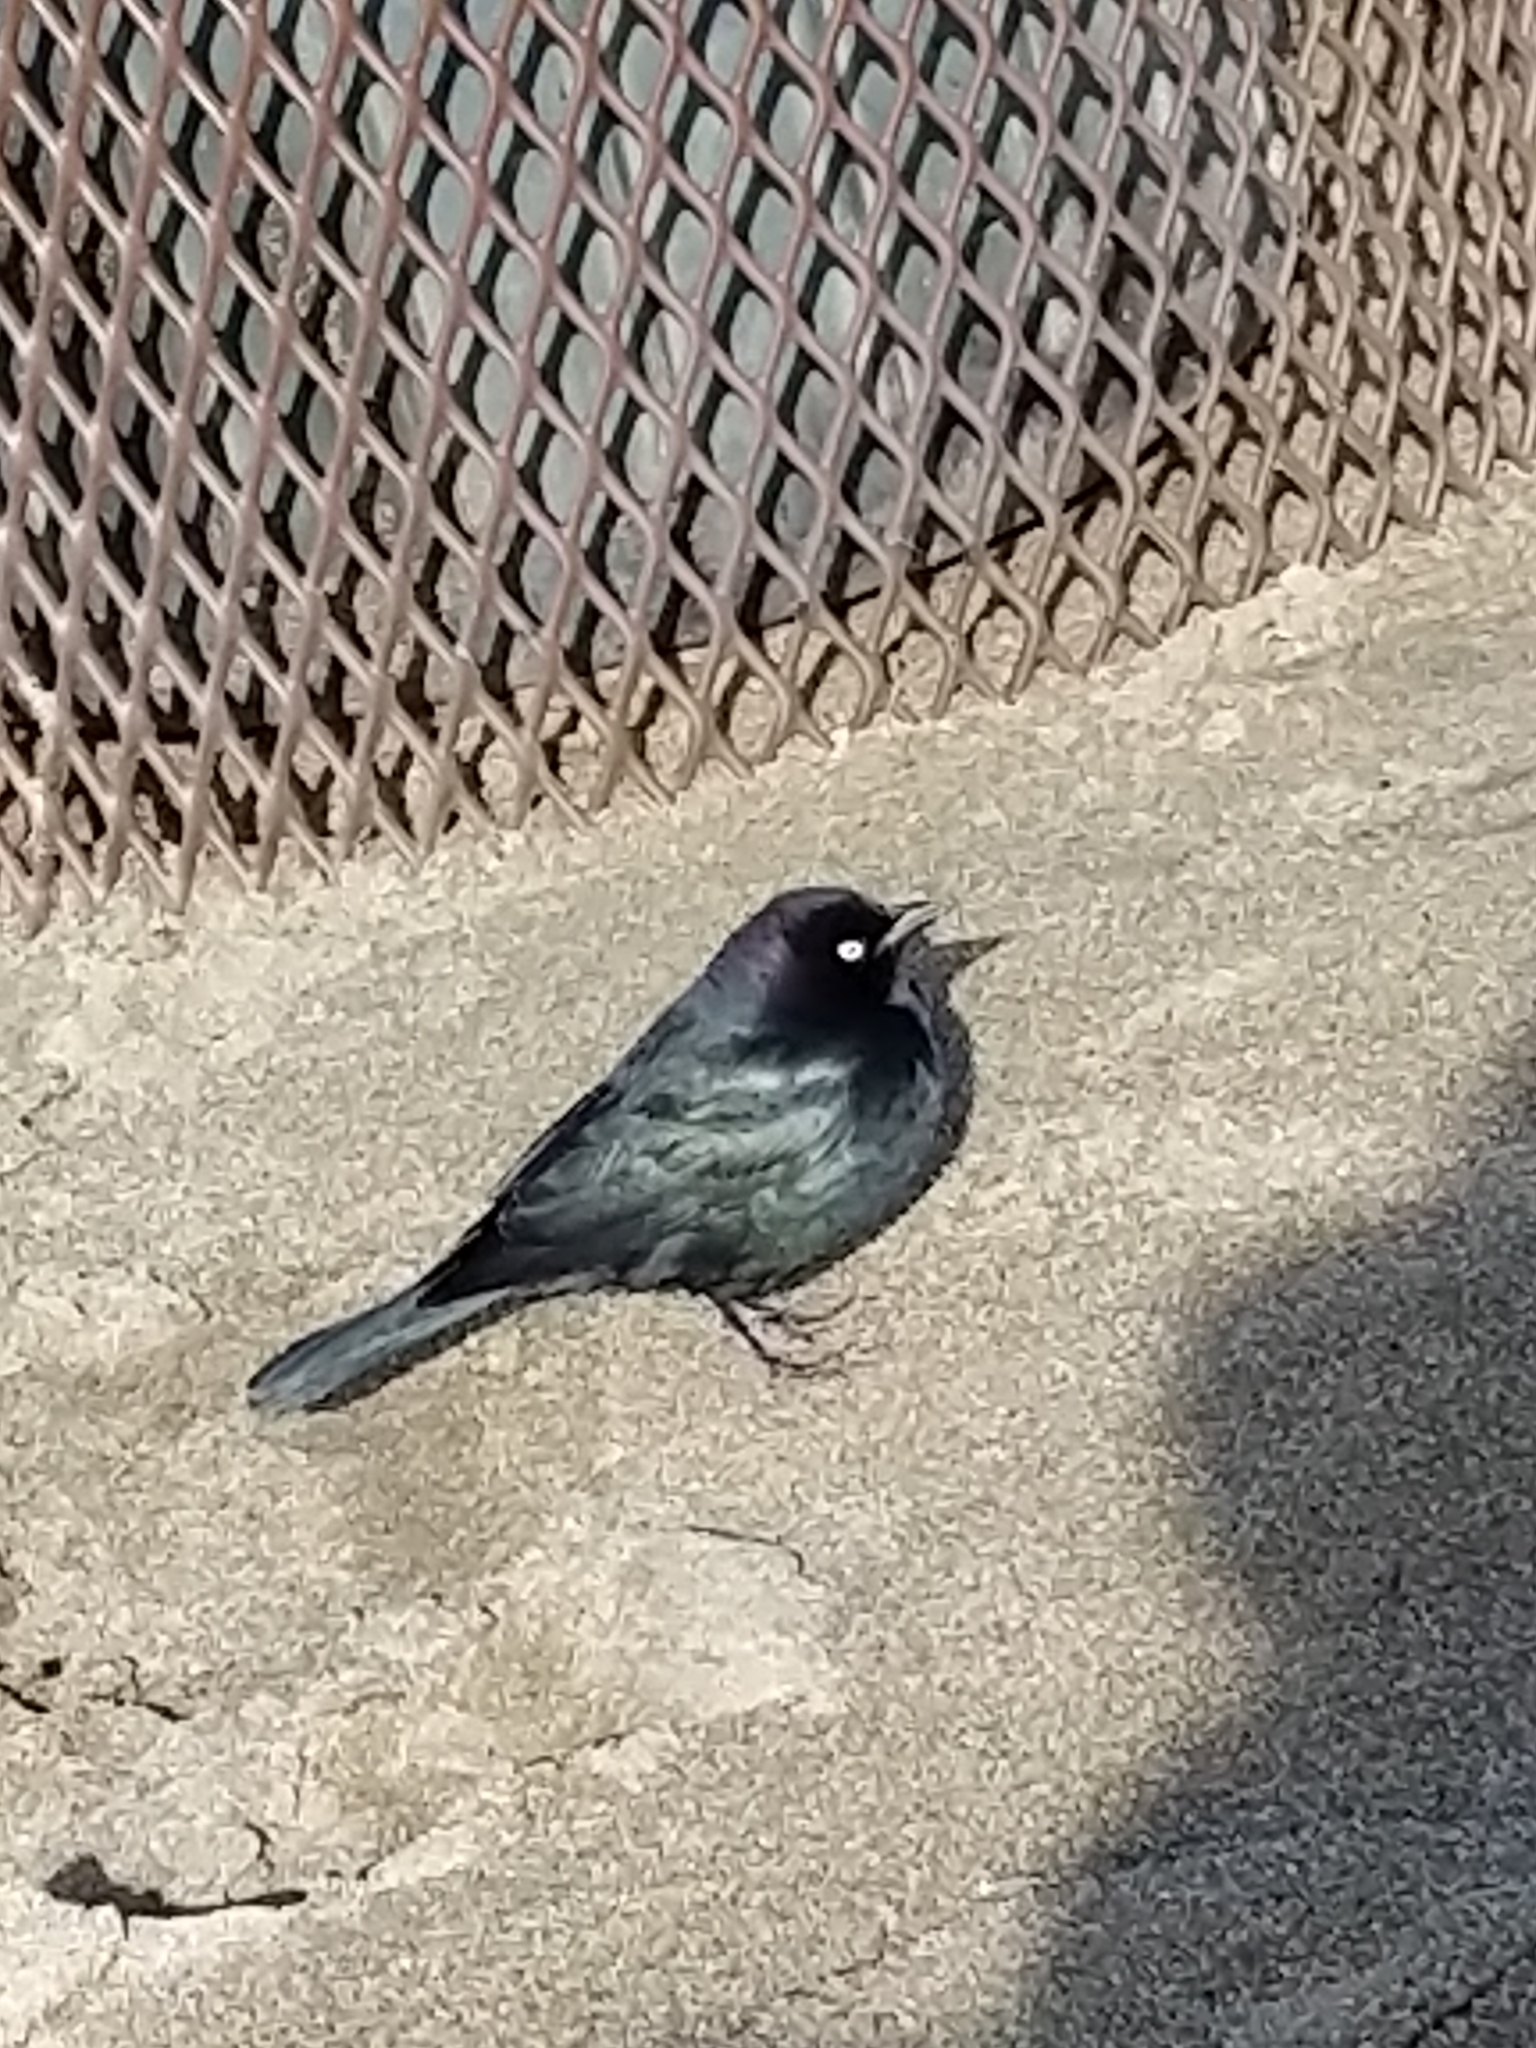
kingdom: Animalia
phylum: Chordata
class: Aves
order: Passeriformes
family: Icteridae
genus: Euphagus
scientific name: Euphagus cyanocephalus
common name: Brewer's blackbird
